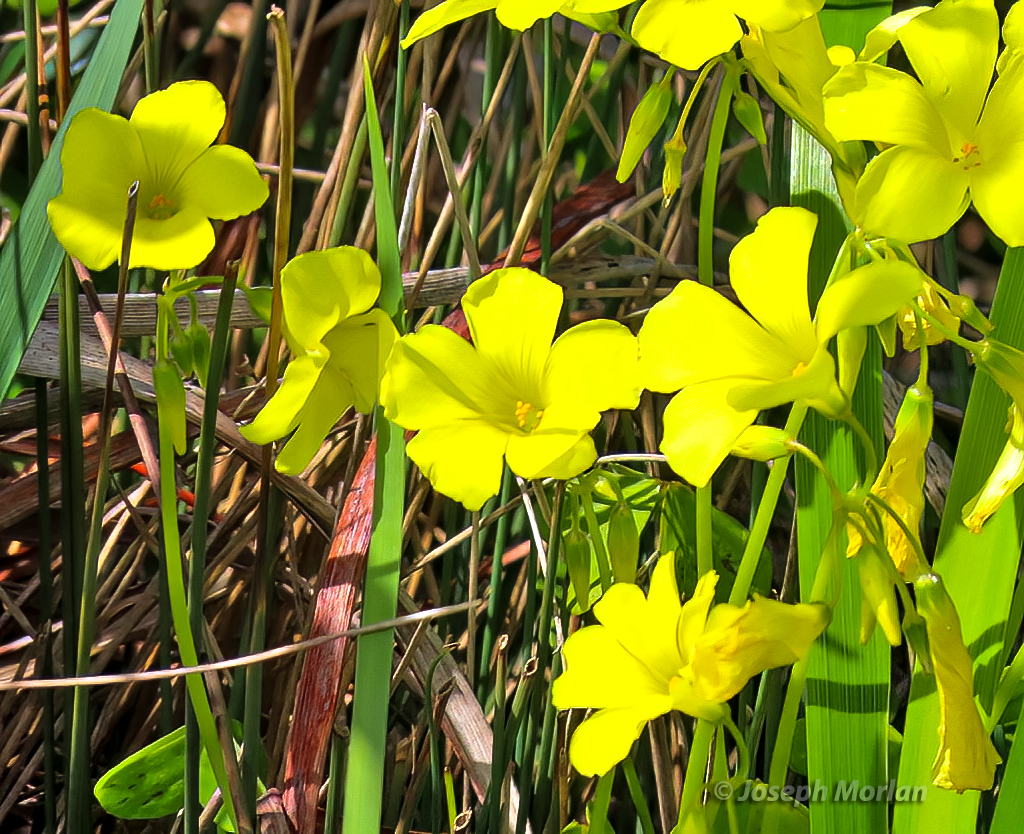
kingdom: Plantae
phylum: Tracheophyta
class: Magnoliopsida
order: Oxalidales
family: Oxalidaceae
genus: Oxalis
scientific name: Oxalis pes-caprae
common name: Bermuda-buttercup
